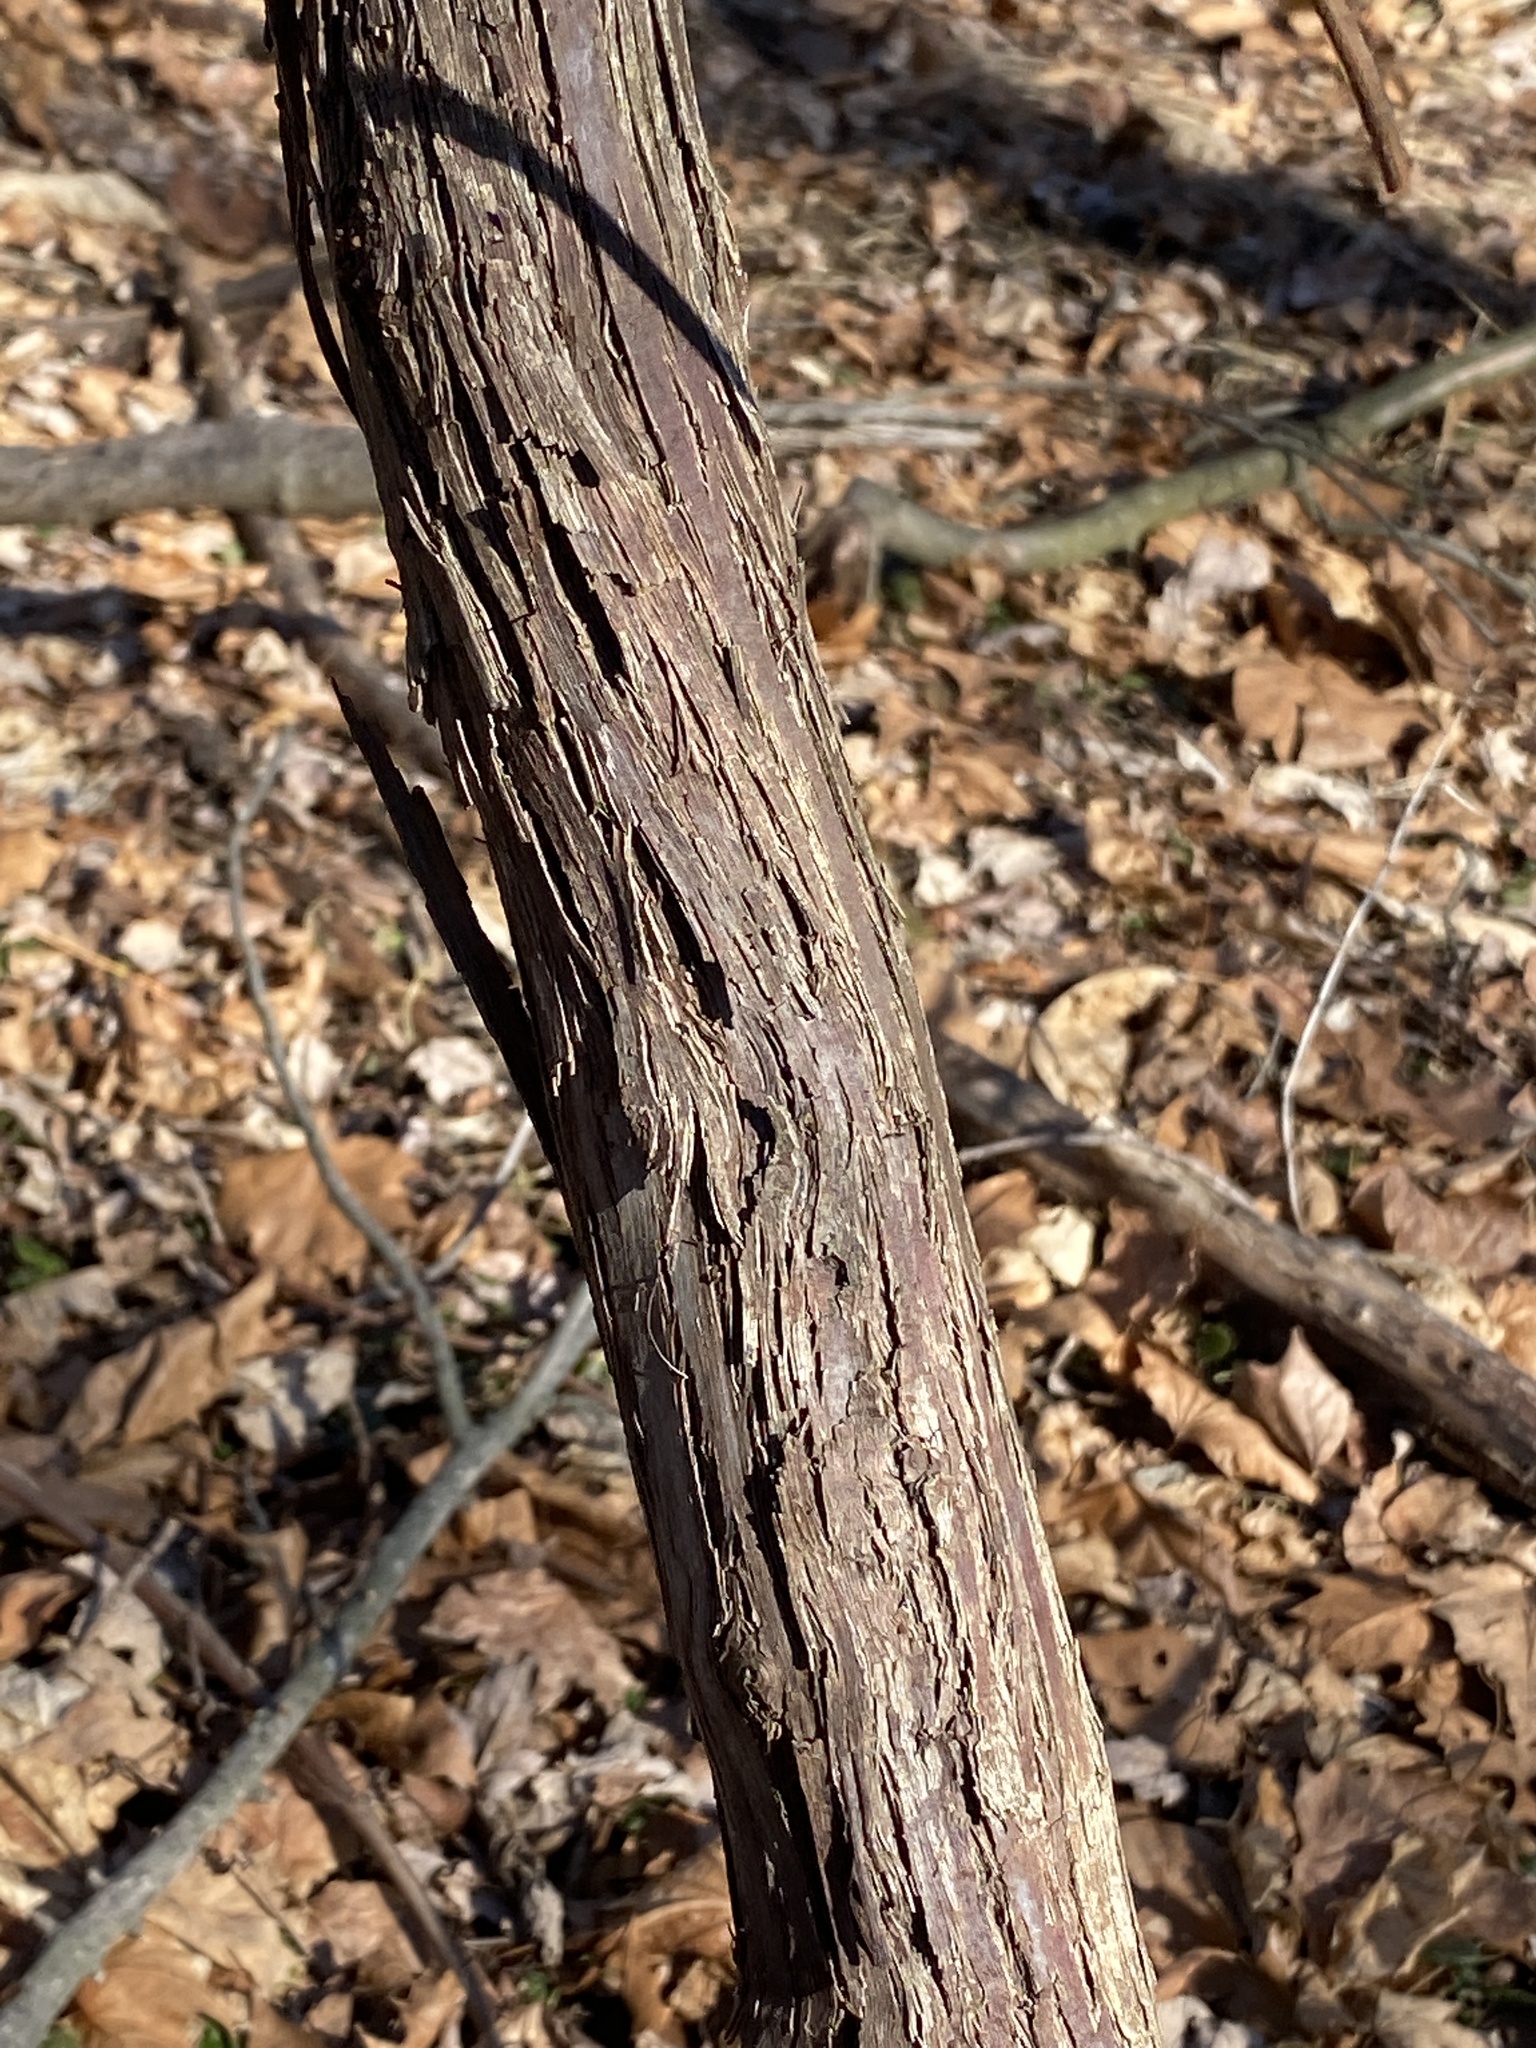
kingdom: Plantae
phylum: Tracheophyta
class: Magnoliopsida
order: Vitales
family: Vitaceae
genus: Vitis
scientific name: Vitis
